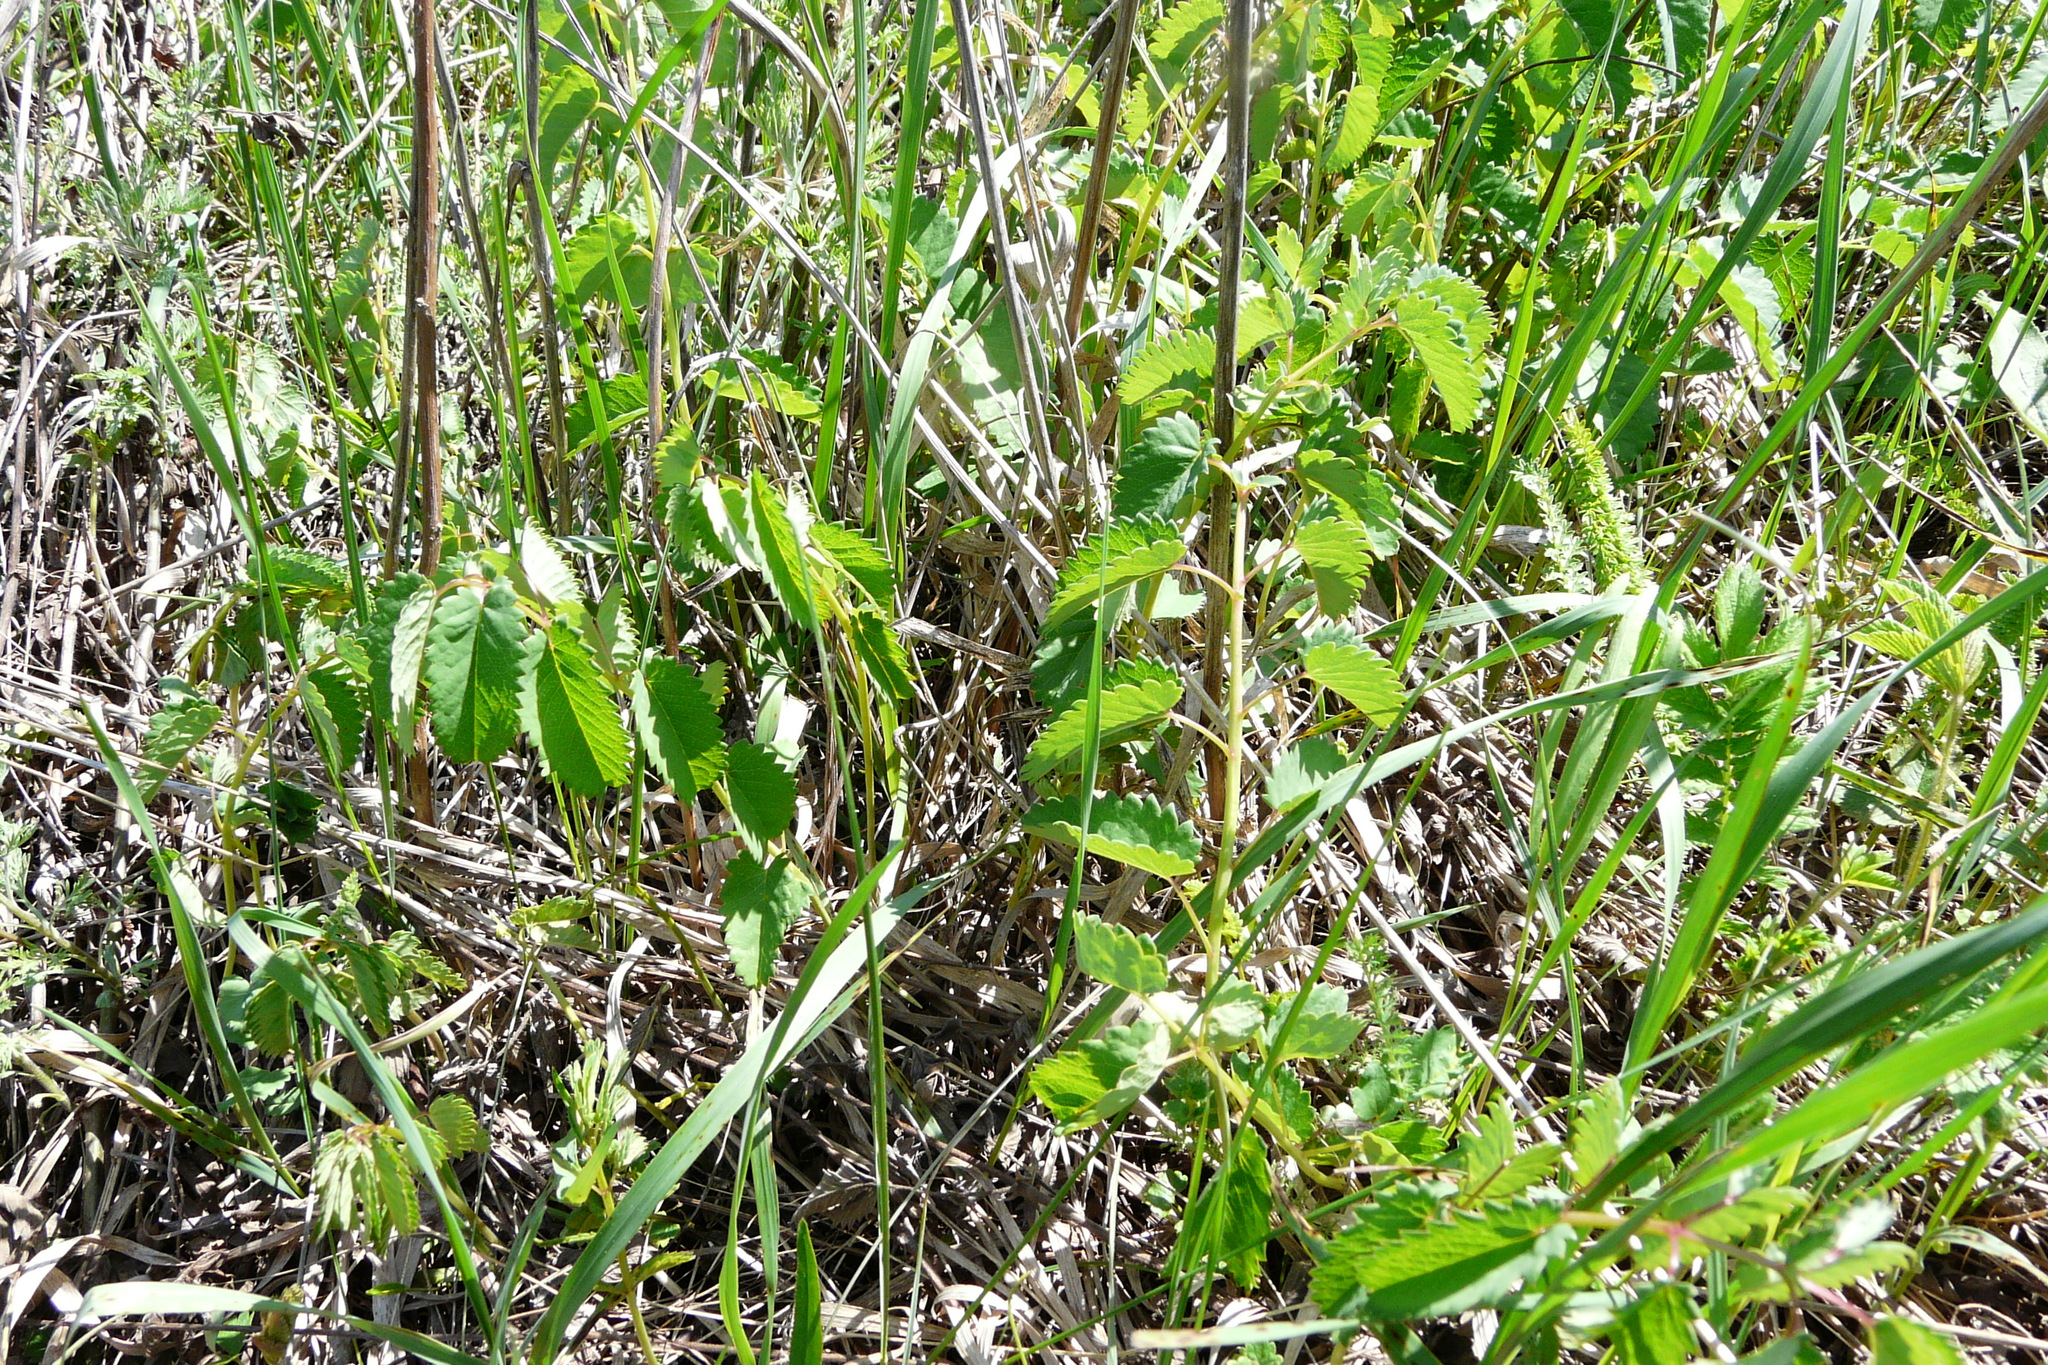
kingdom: Plantae
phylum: Tracheophyta
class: Magnoliopsida
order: Rosales
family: Rosaceae
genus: Sanguisorba
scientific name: Sanguisorba officinalis
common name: Great burnet
